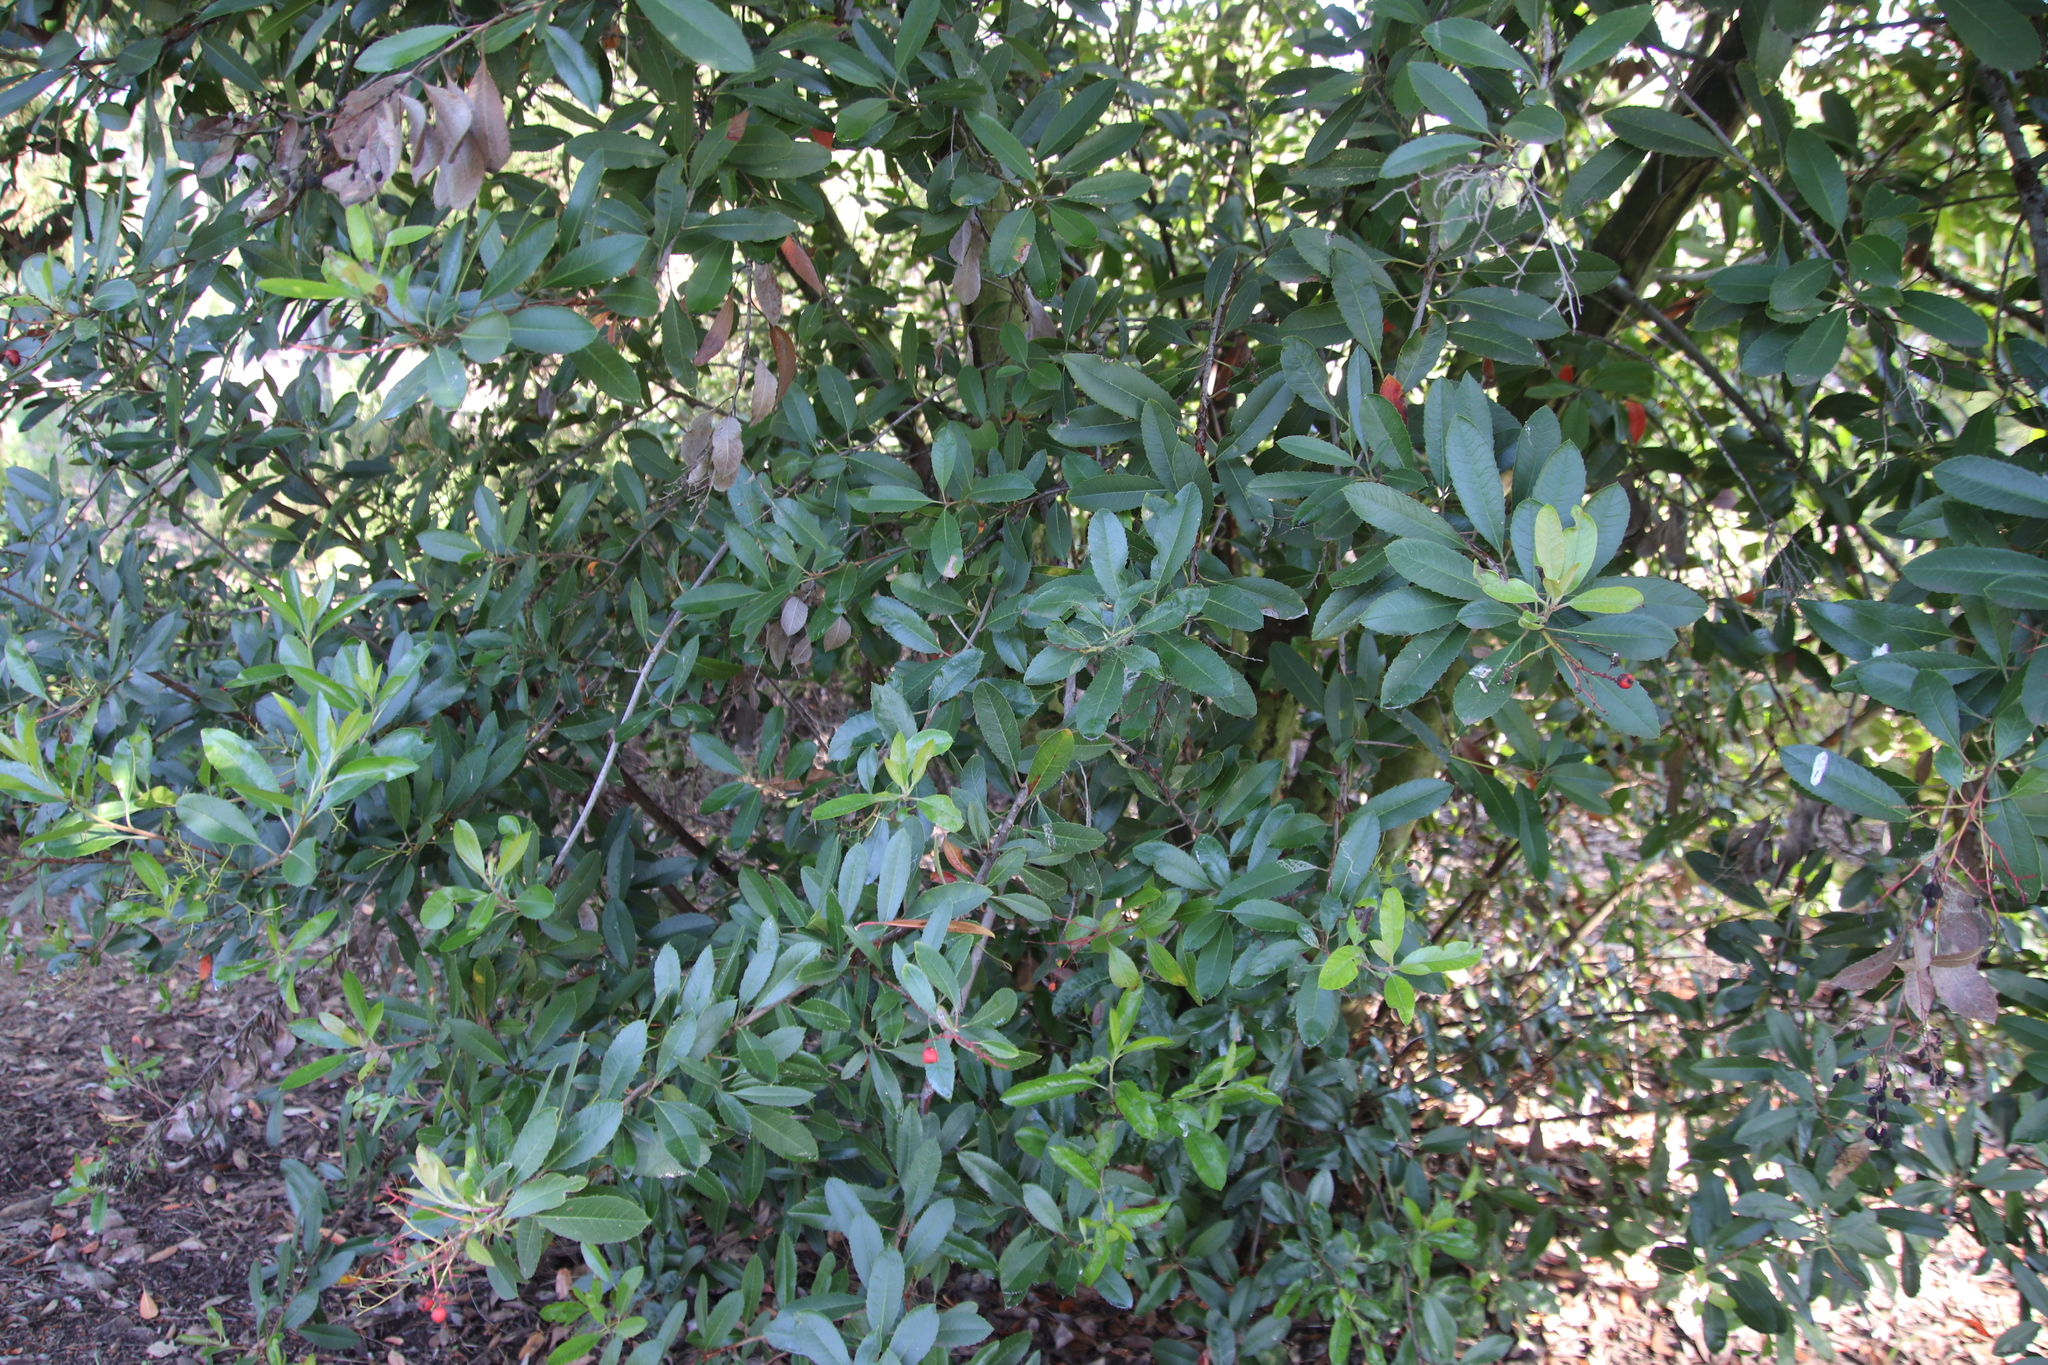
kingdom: Plantae
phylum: Tracheophyta
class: Magnoliopsida
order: Rosales
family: Rosaceae
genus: Heteromeles
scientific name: Heteromeles arbutifolia
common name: California-holly
